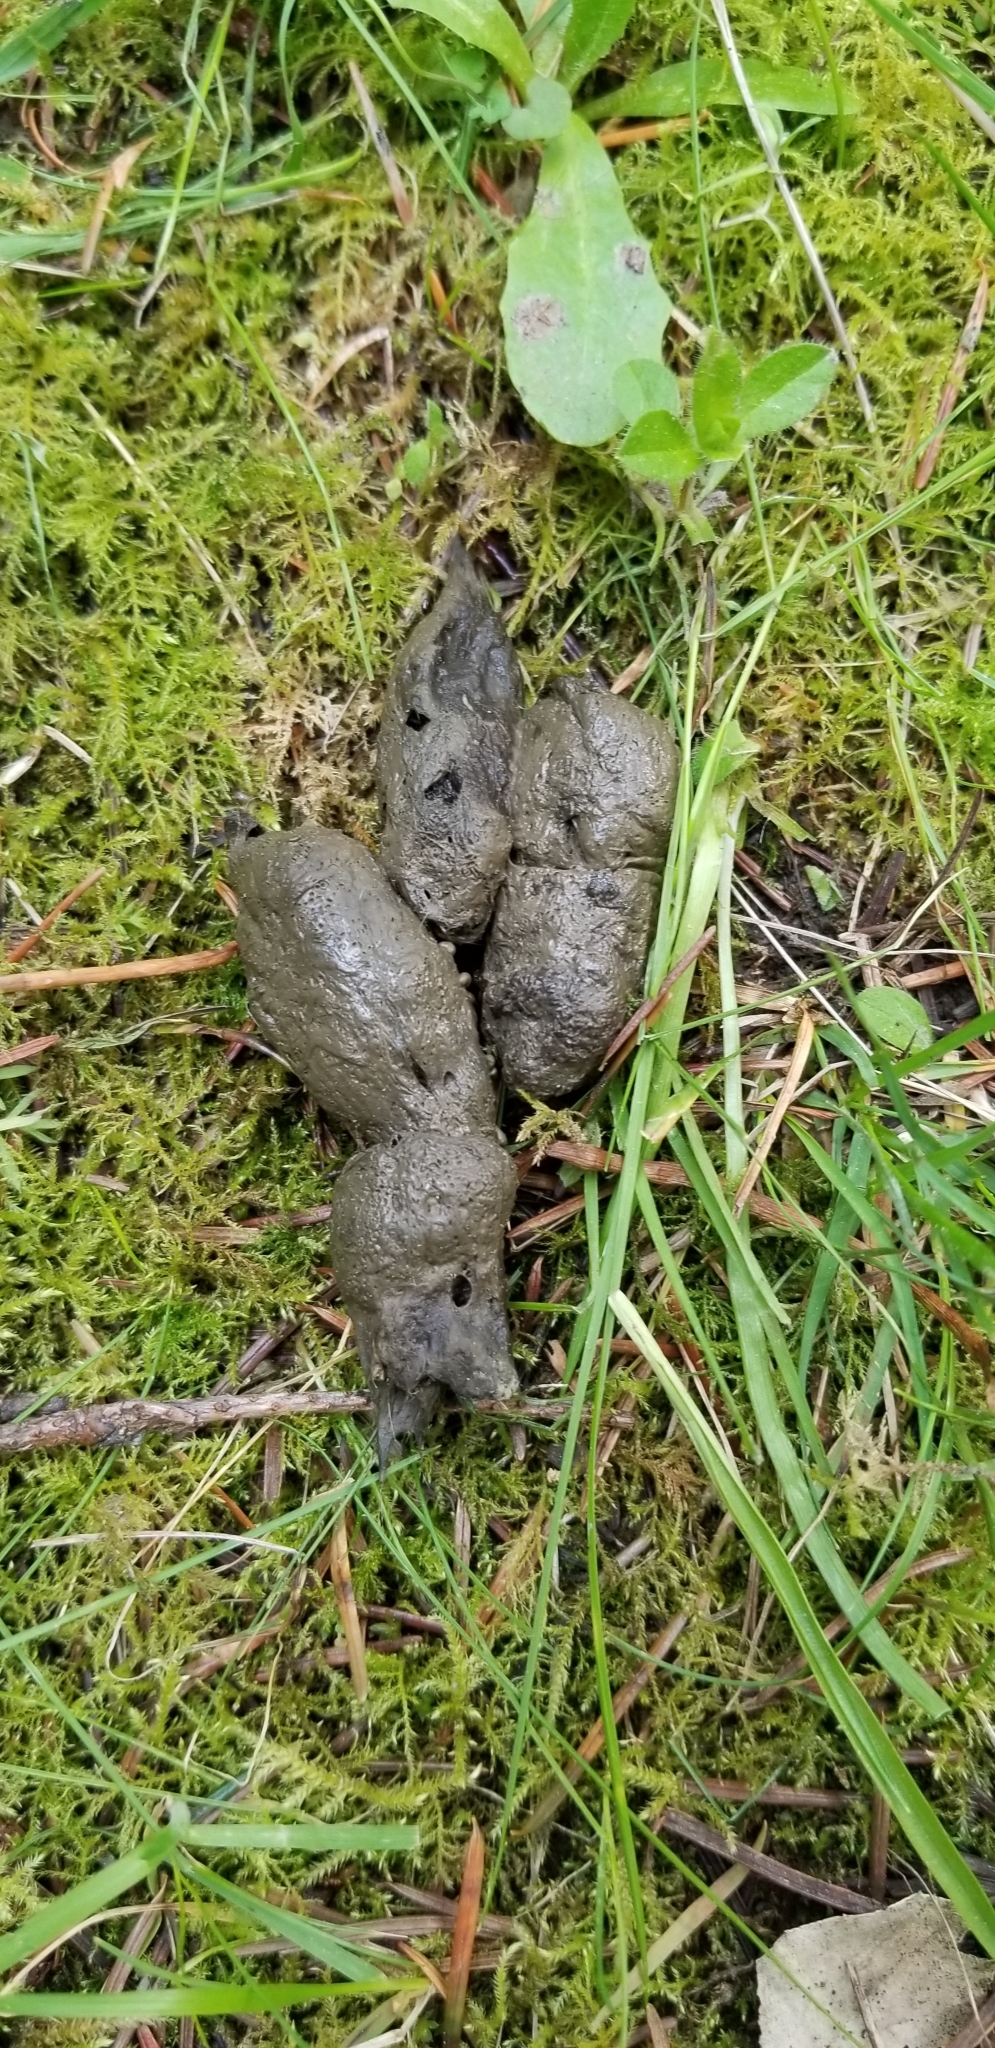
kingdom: Animalia
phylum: Chordata
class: Mammalia
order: Carnivora
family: Canidae
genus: Canis
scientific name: Canis latrans
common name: Coyote
